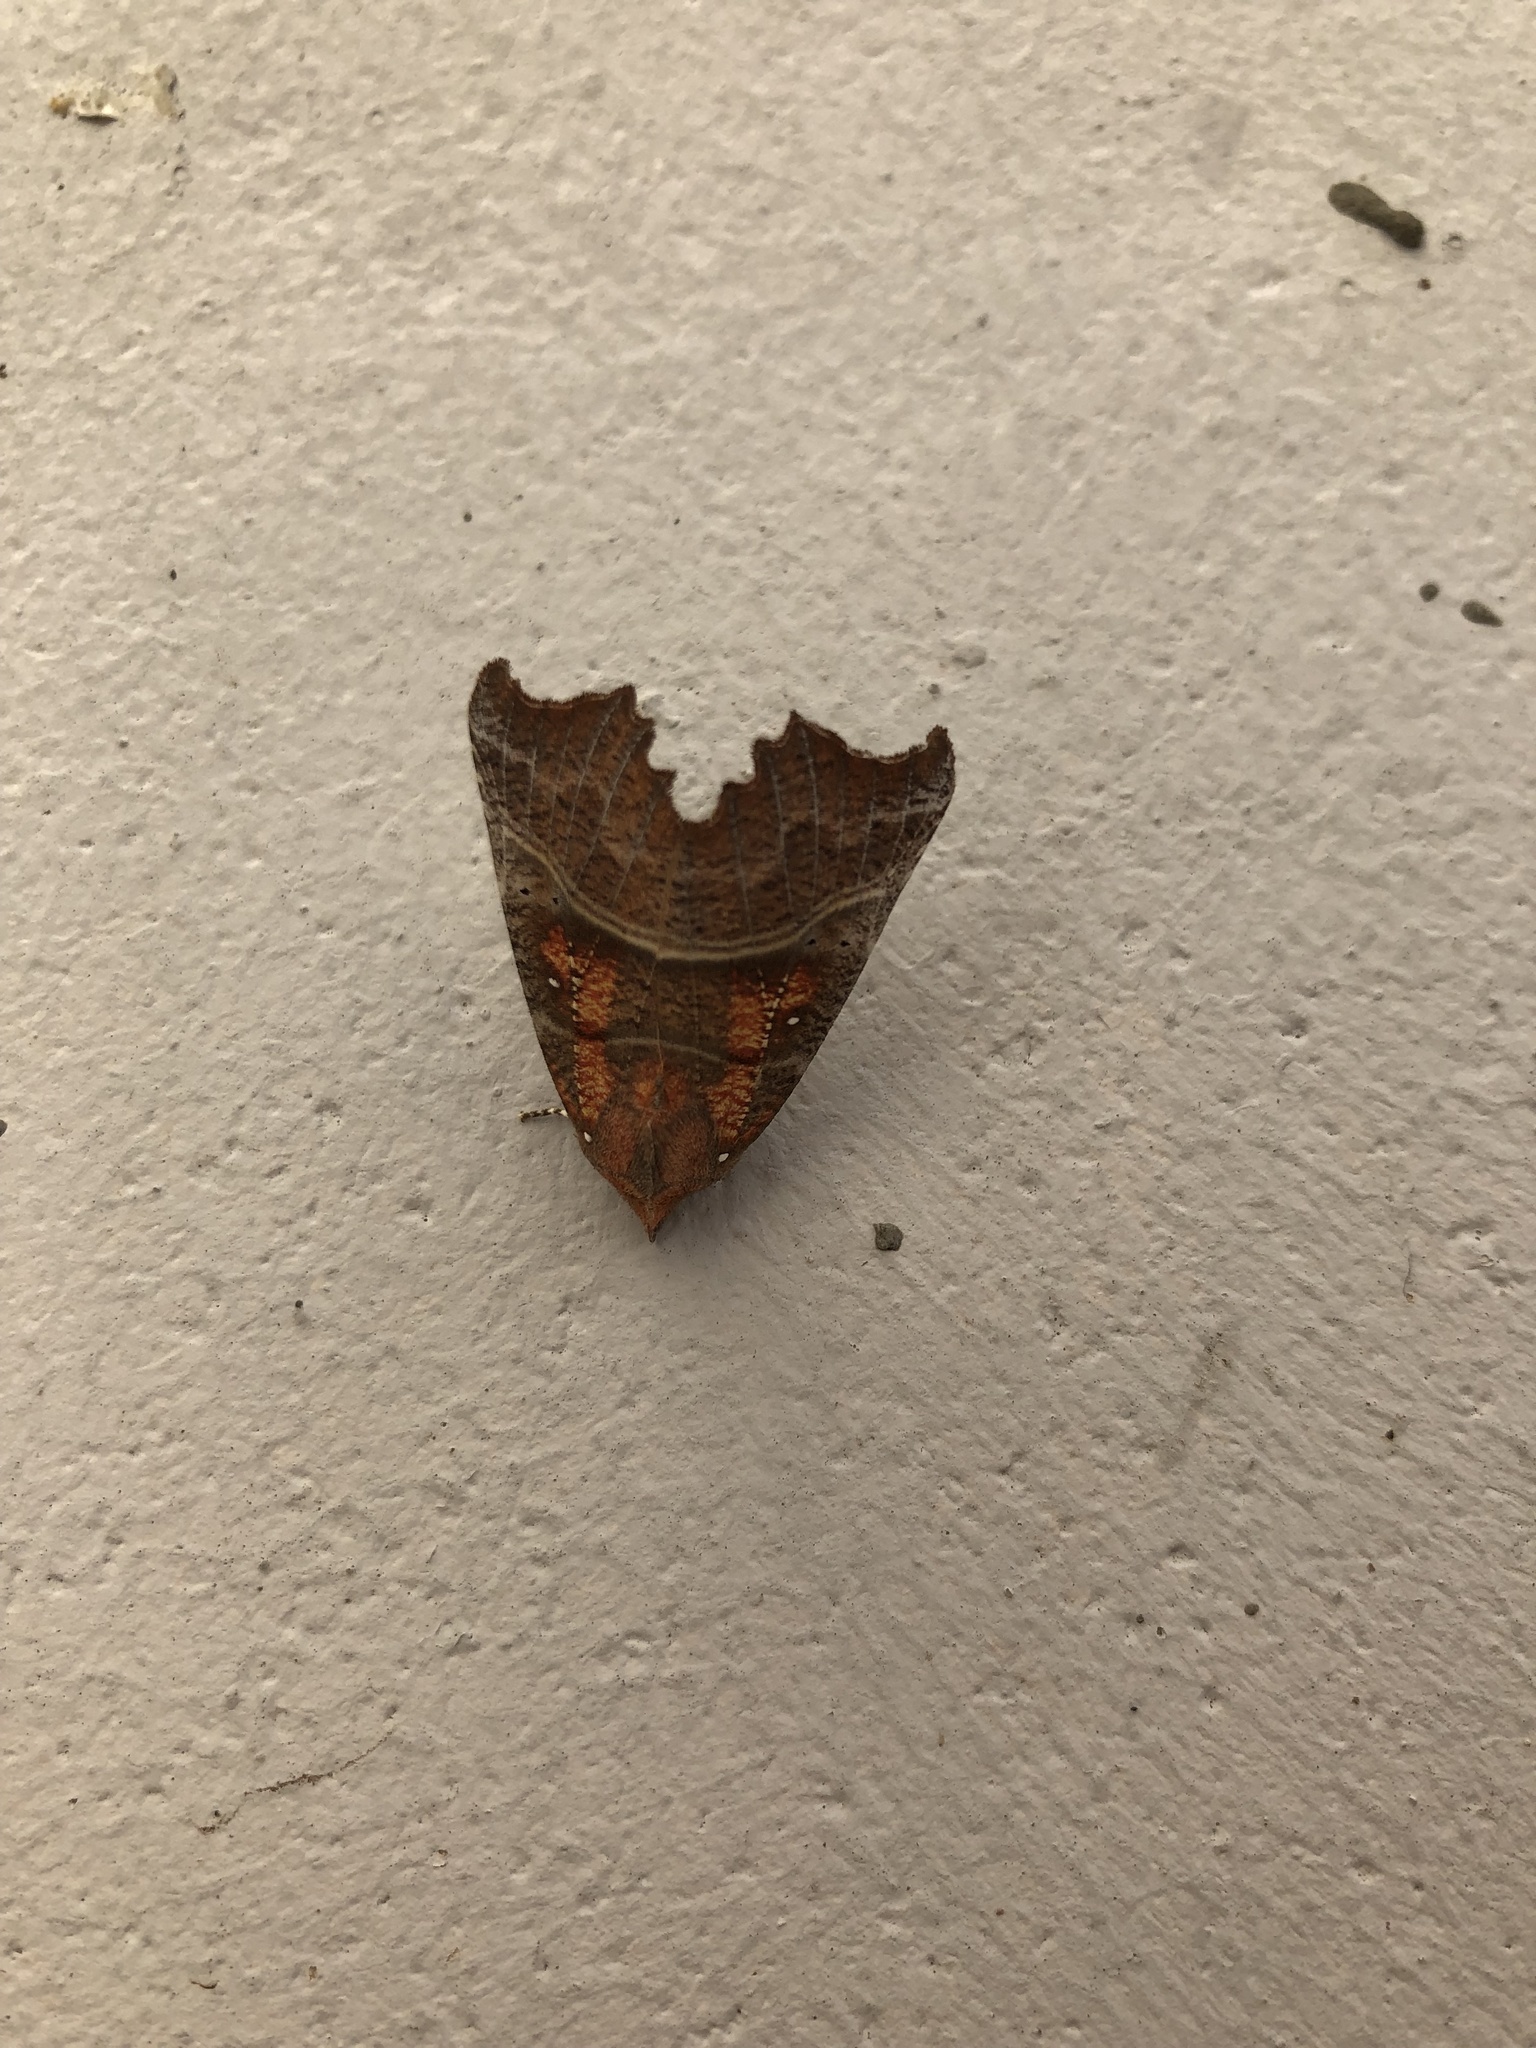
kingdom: Animalia
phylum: Arthropoda
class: Insecta
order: Lepidoptera
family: Erebidae
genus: Scoliopteryx
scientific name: Scoliopteryx libatrix
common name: Herald
